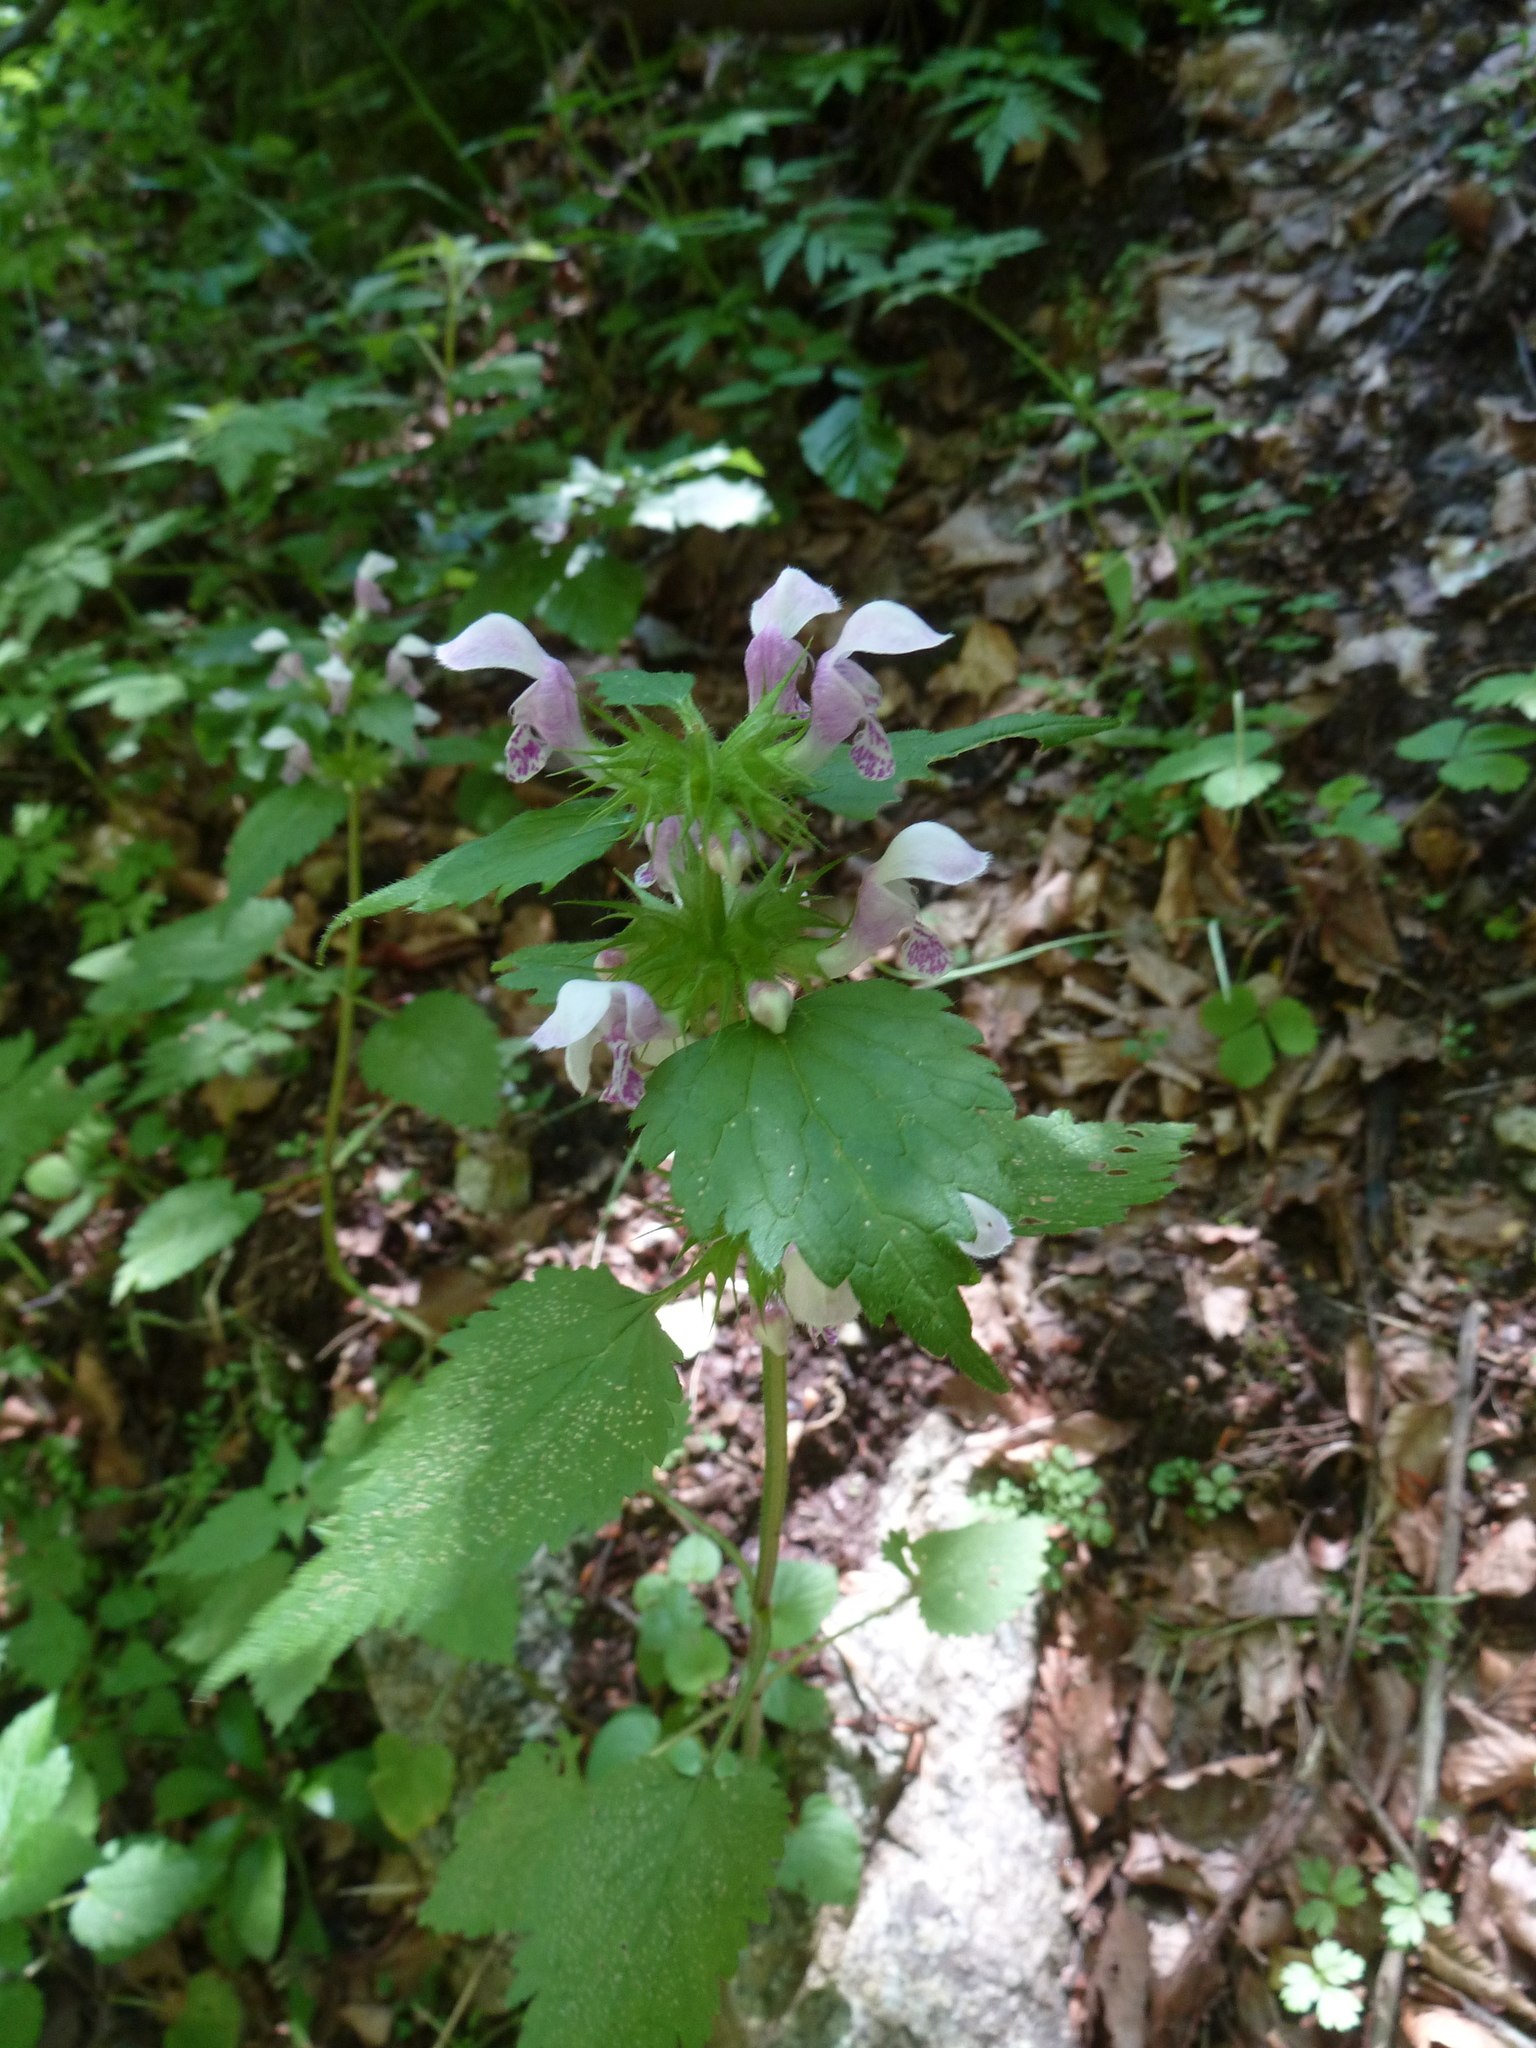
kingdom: Plantae
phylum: Tracheophyta
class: Magnoliopsida
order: Lamiales
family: Lamiaceae
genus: Lamium
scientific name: Lamium maculatum
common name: Spotted dead-nettle
